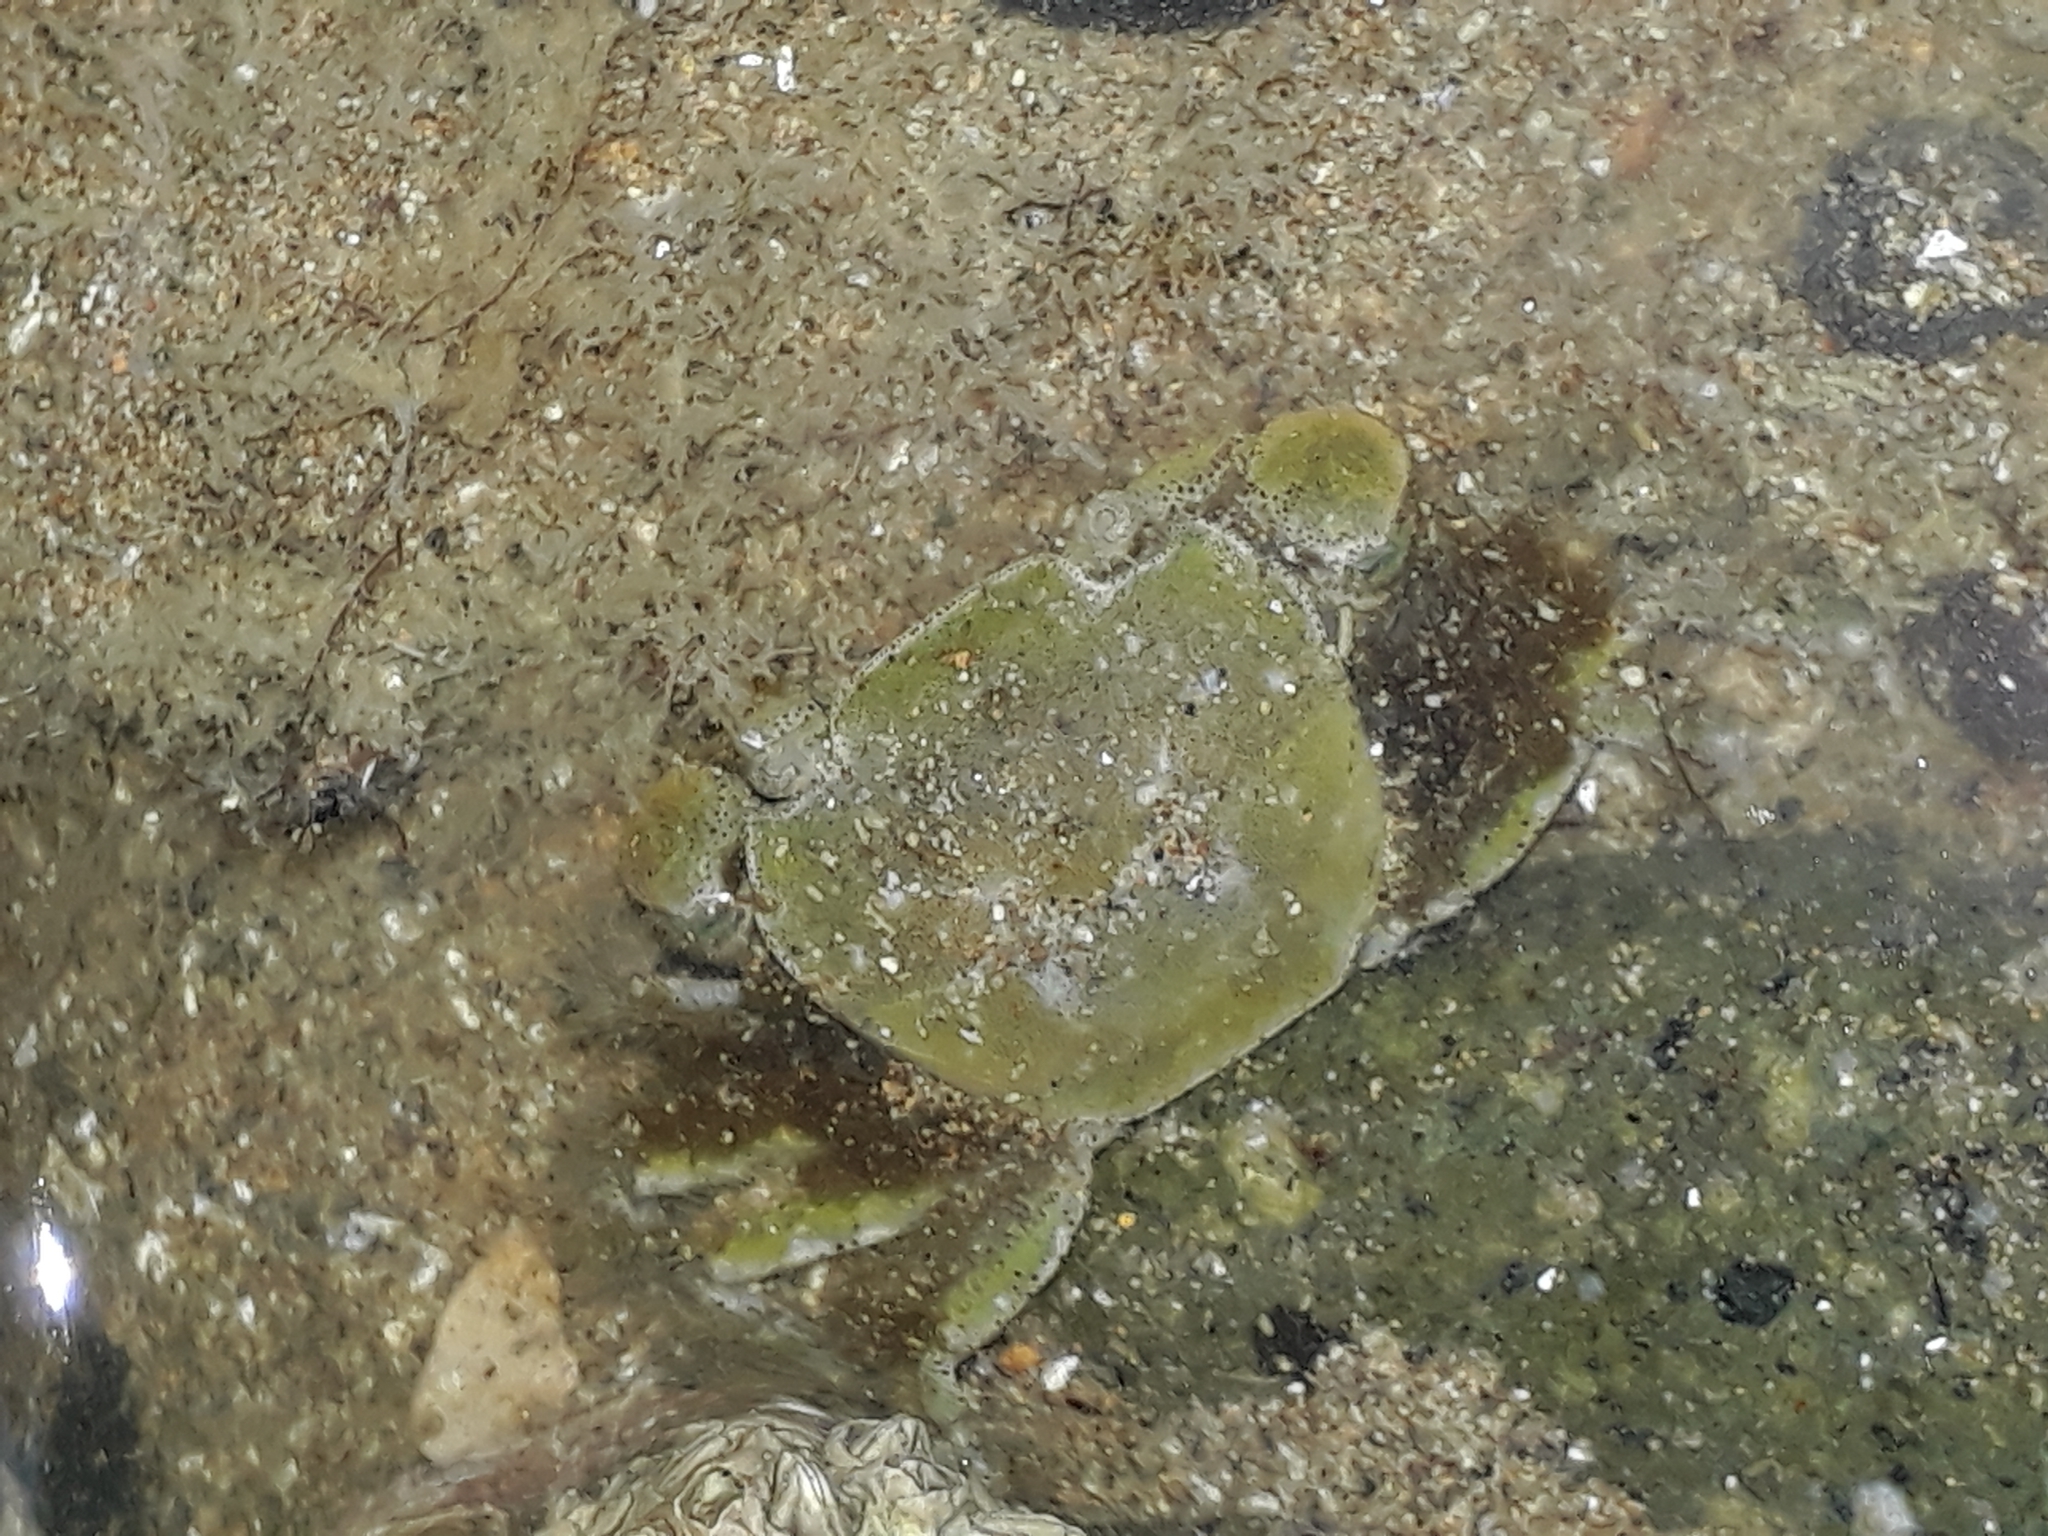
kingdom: Animalia
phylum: Arthropoda
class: Malacostraca
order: Decapoda
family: Varunidae
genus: Hemigrapsus
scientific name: Hemigrapsus crenulatus
